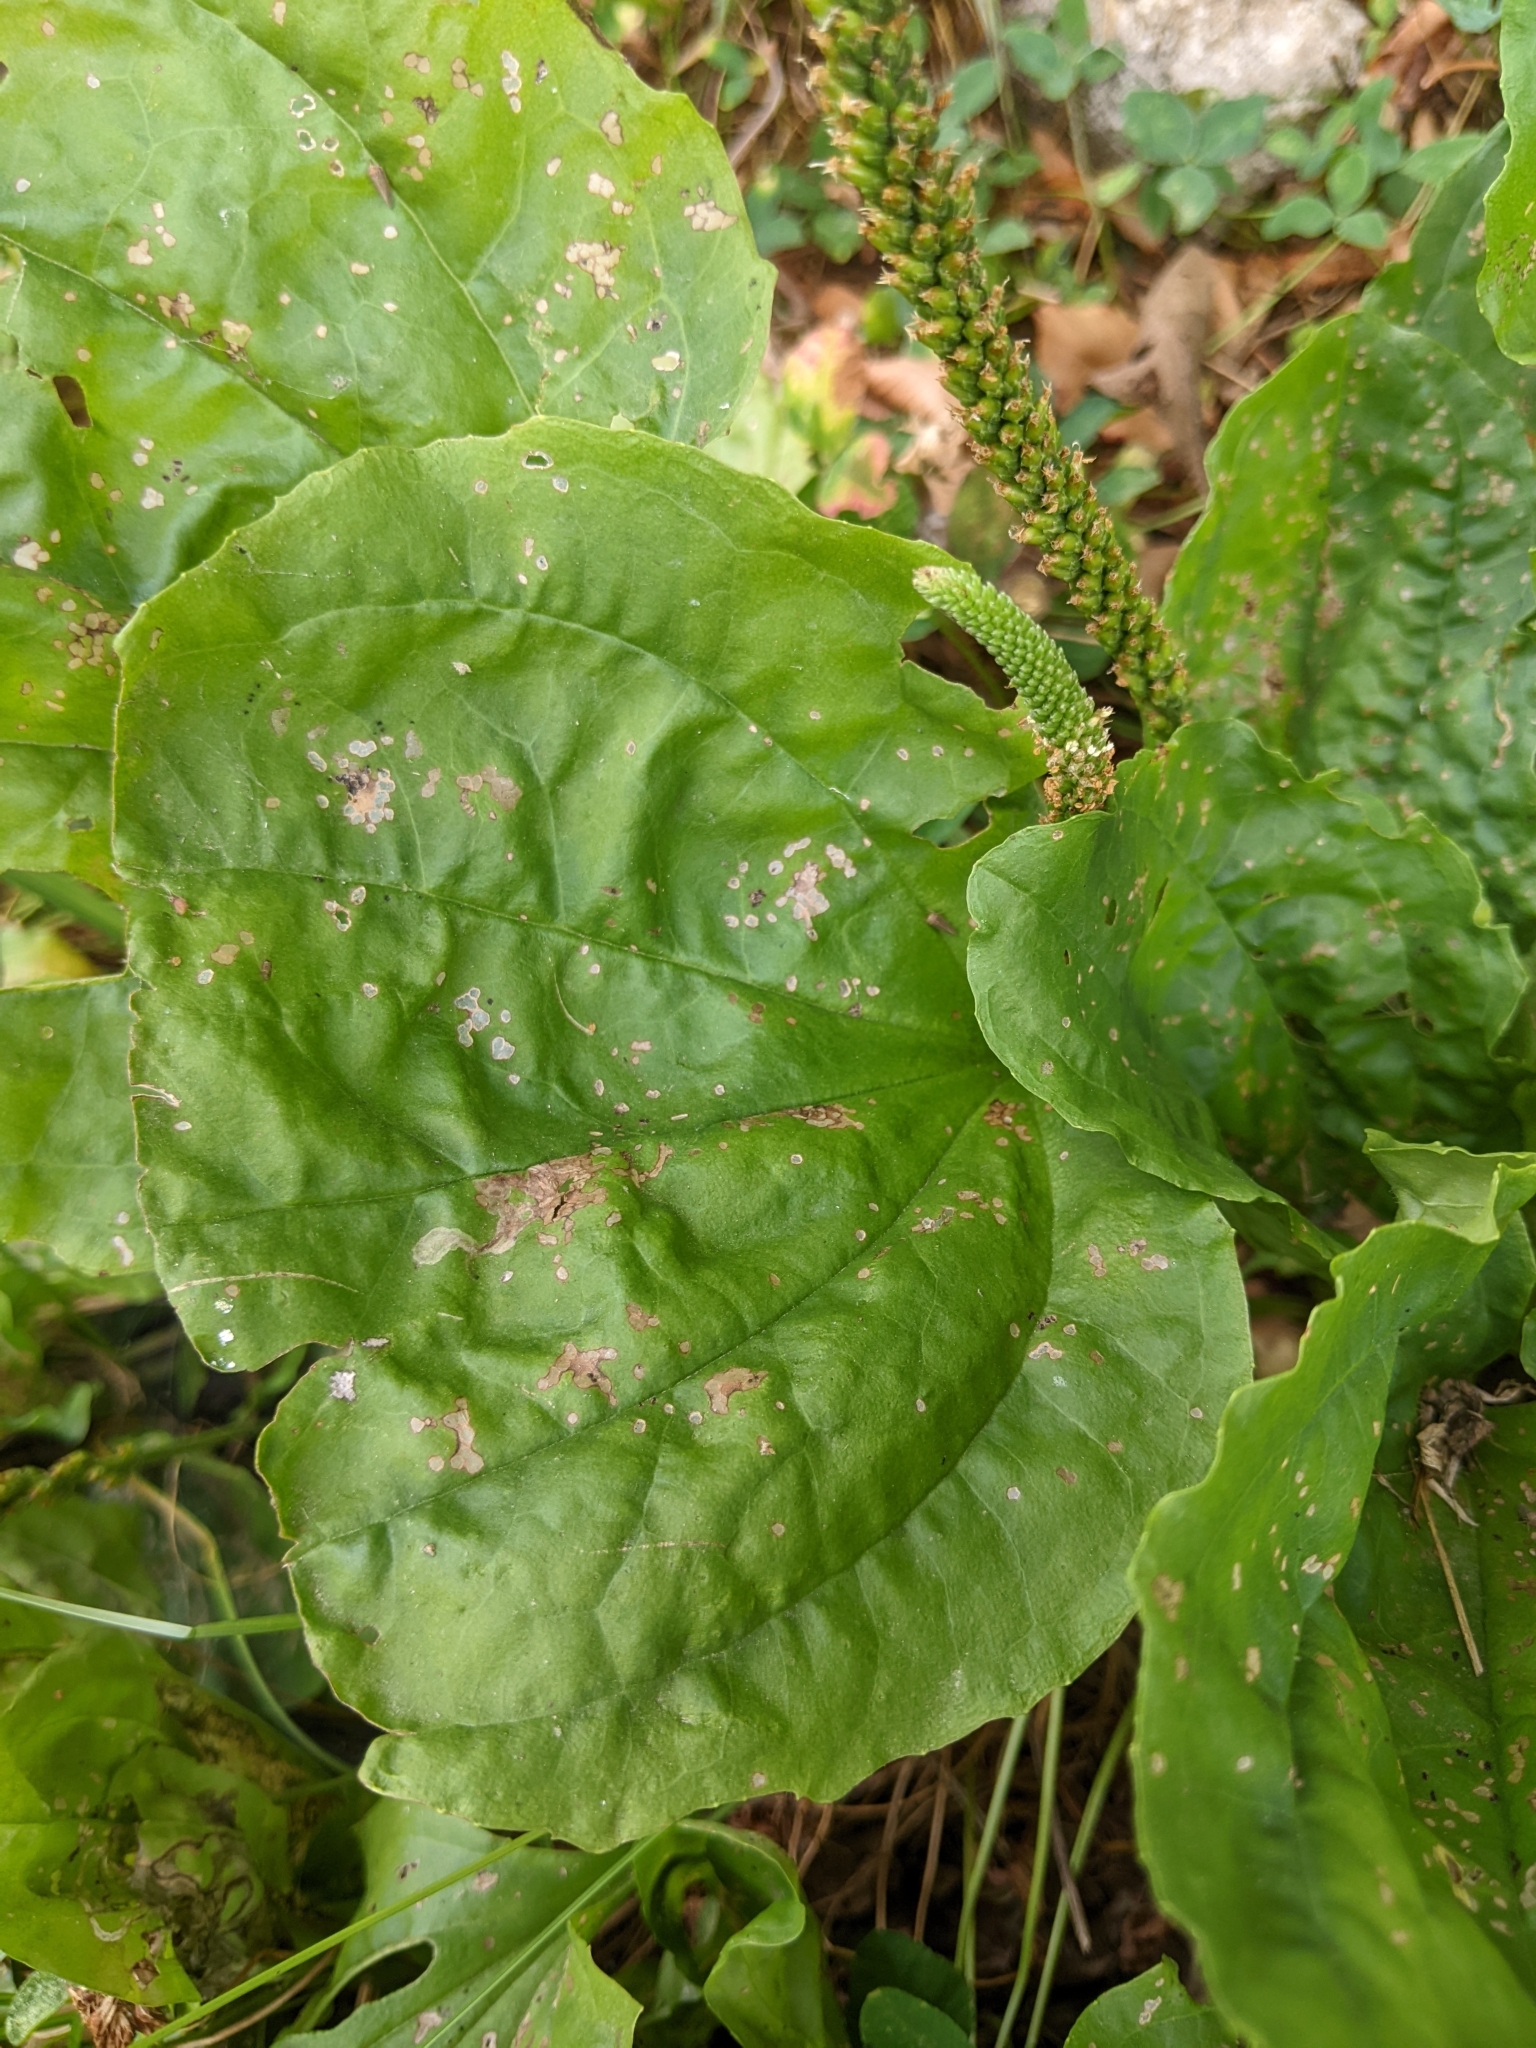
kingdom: Plantae
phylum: Tracheophyta
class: Magnoliopsida
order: Lamiales
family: Plantaginaceae
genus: Plantago
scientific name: Plantago major
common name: Common plantain
